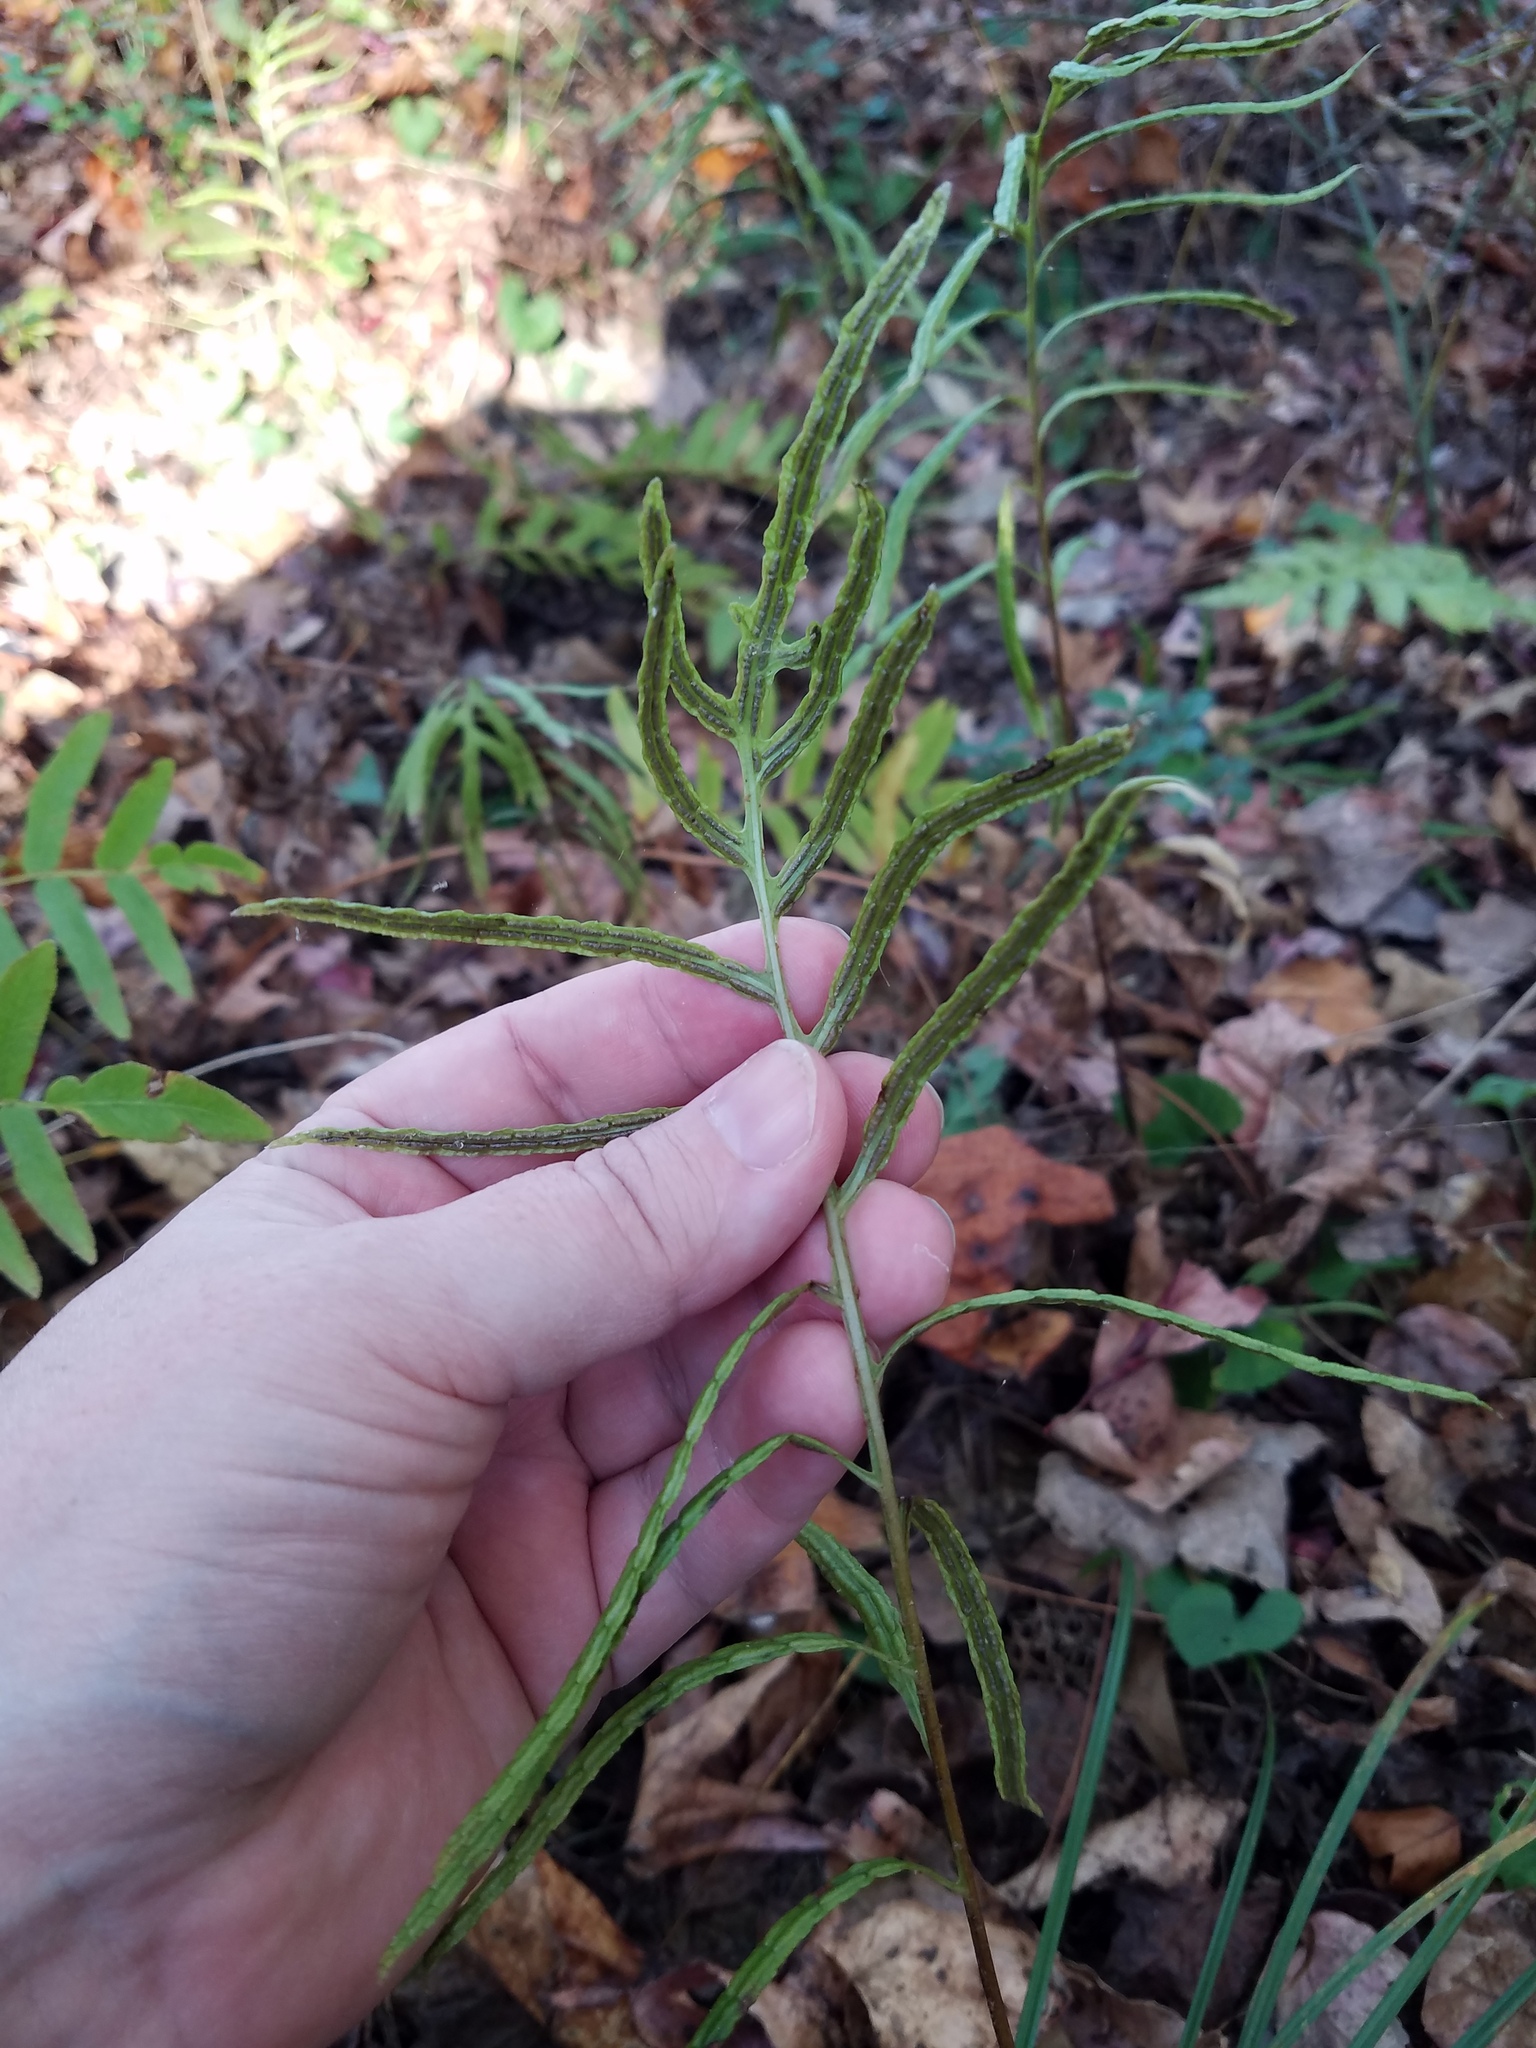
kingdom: Plantae
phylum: Tracheophyta
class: Polypodiopsida
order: Osmundales
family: Osmundaceae
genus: Osmunda
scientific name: Osmunda spectabilis
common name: American royal fern
